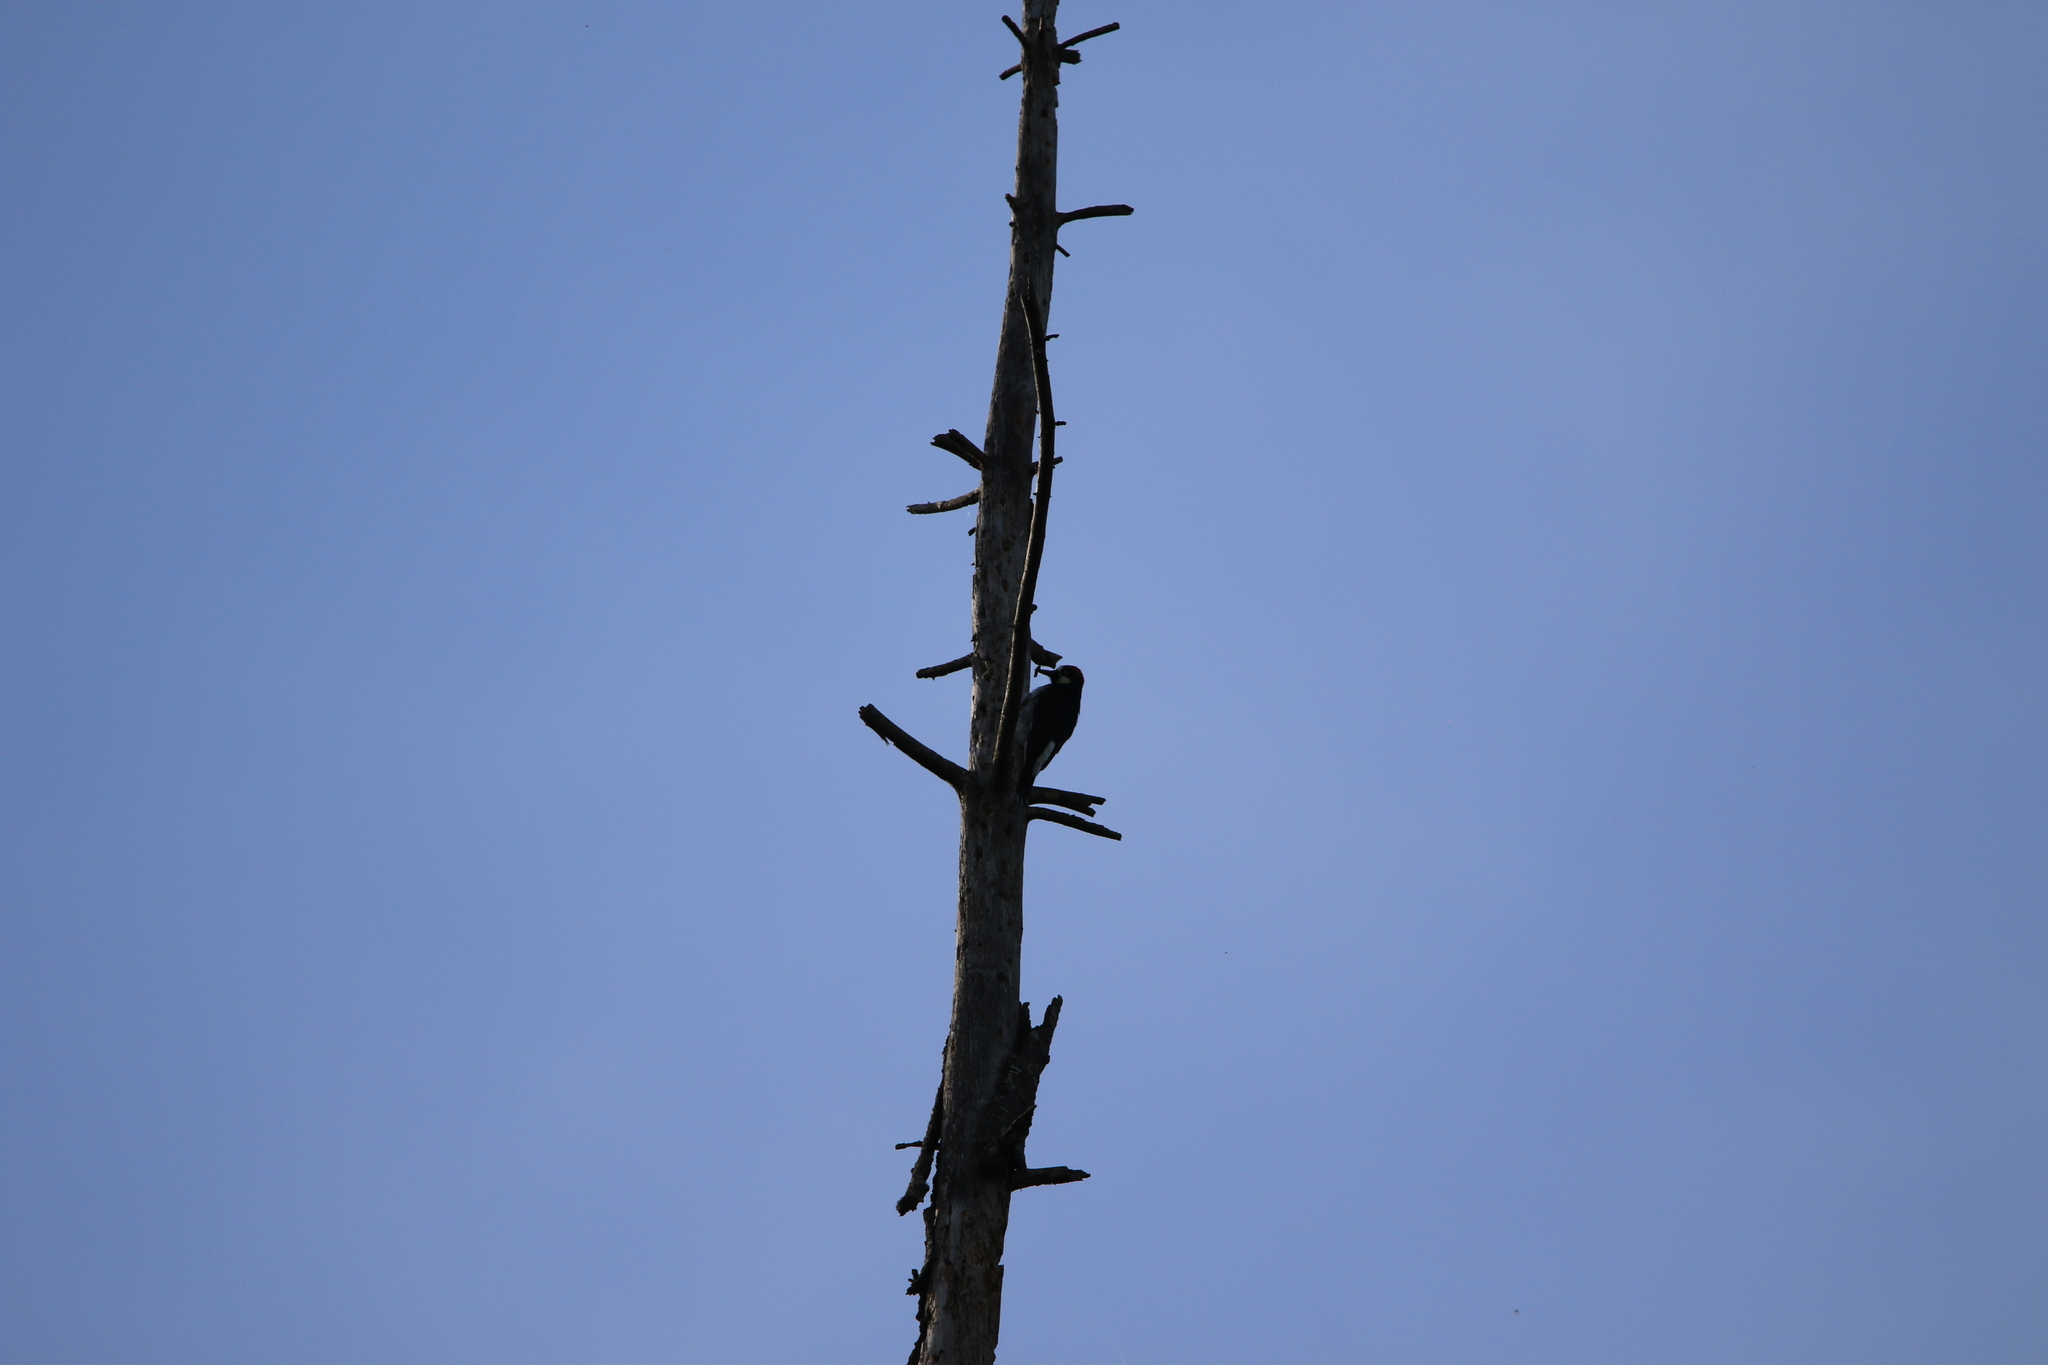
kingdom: Animalia
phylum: Chordata
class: Aves
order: Piciformes
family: Picidae
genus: Melanerpes
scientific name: Melanerpes formicivorus
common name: Acorn woodpecker
